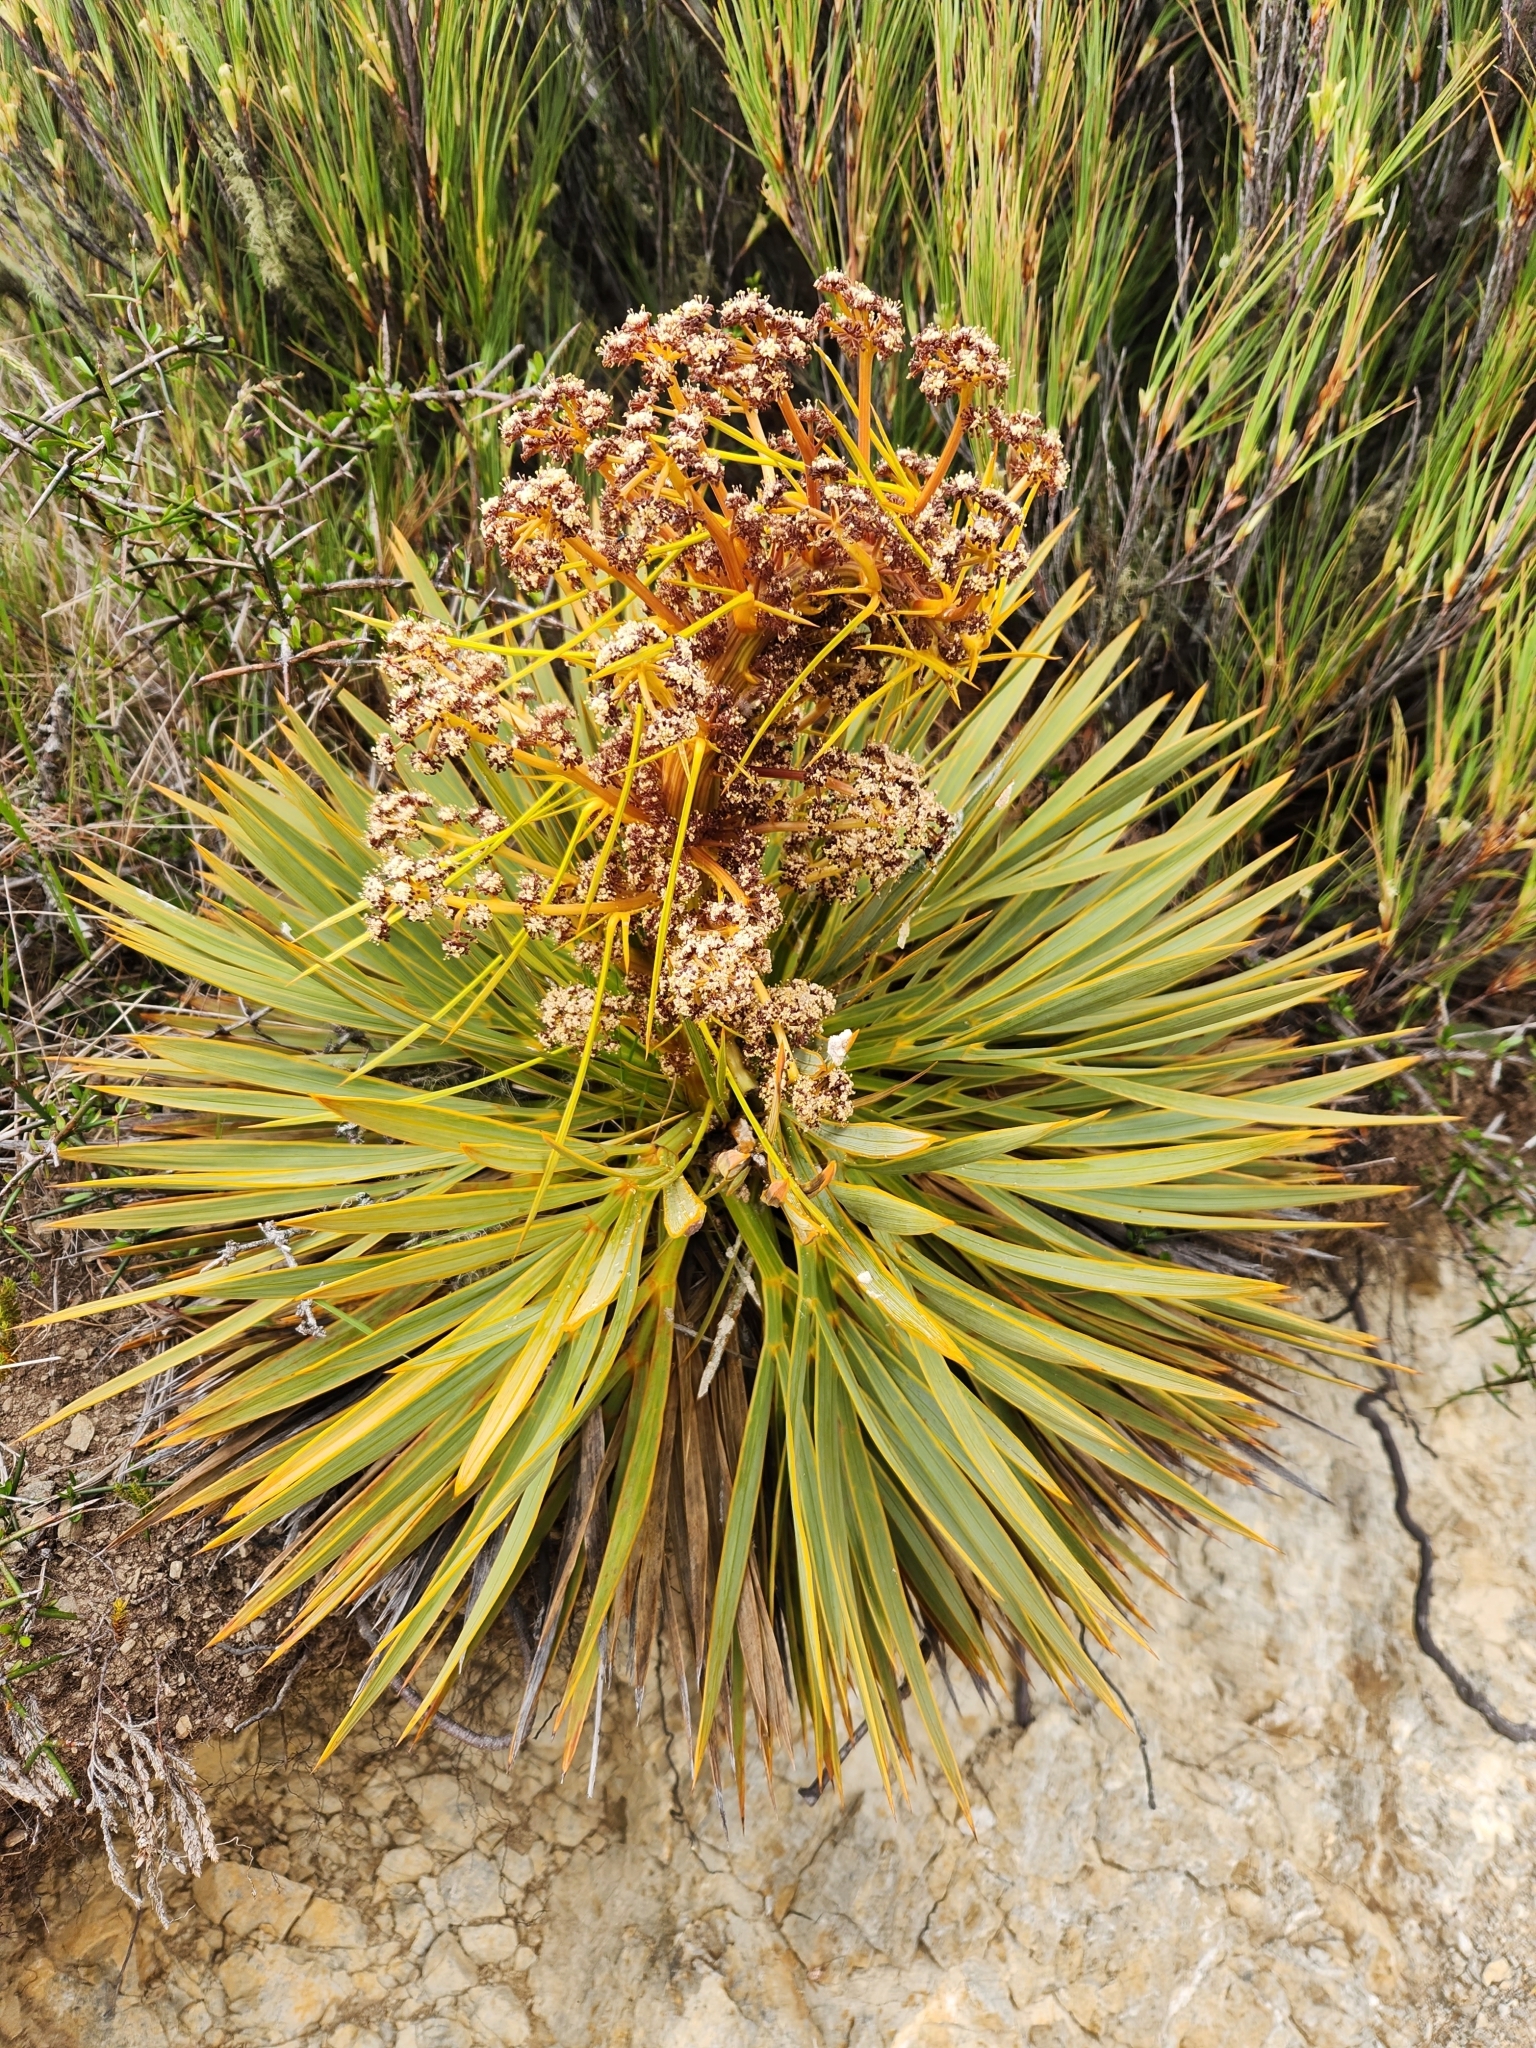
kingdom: Plantae
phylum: Tracheophyta
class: Magnoliopsida
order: Apiales
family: Apiaceae
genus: Aciphylla
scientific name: Aciphylla aurea
